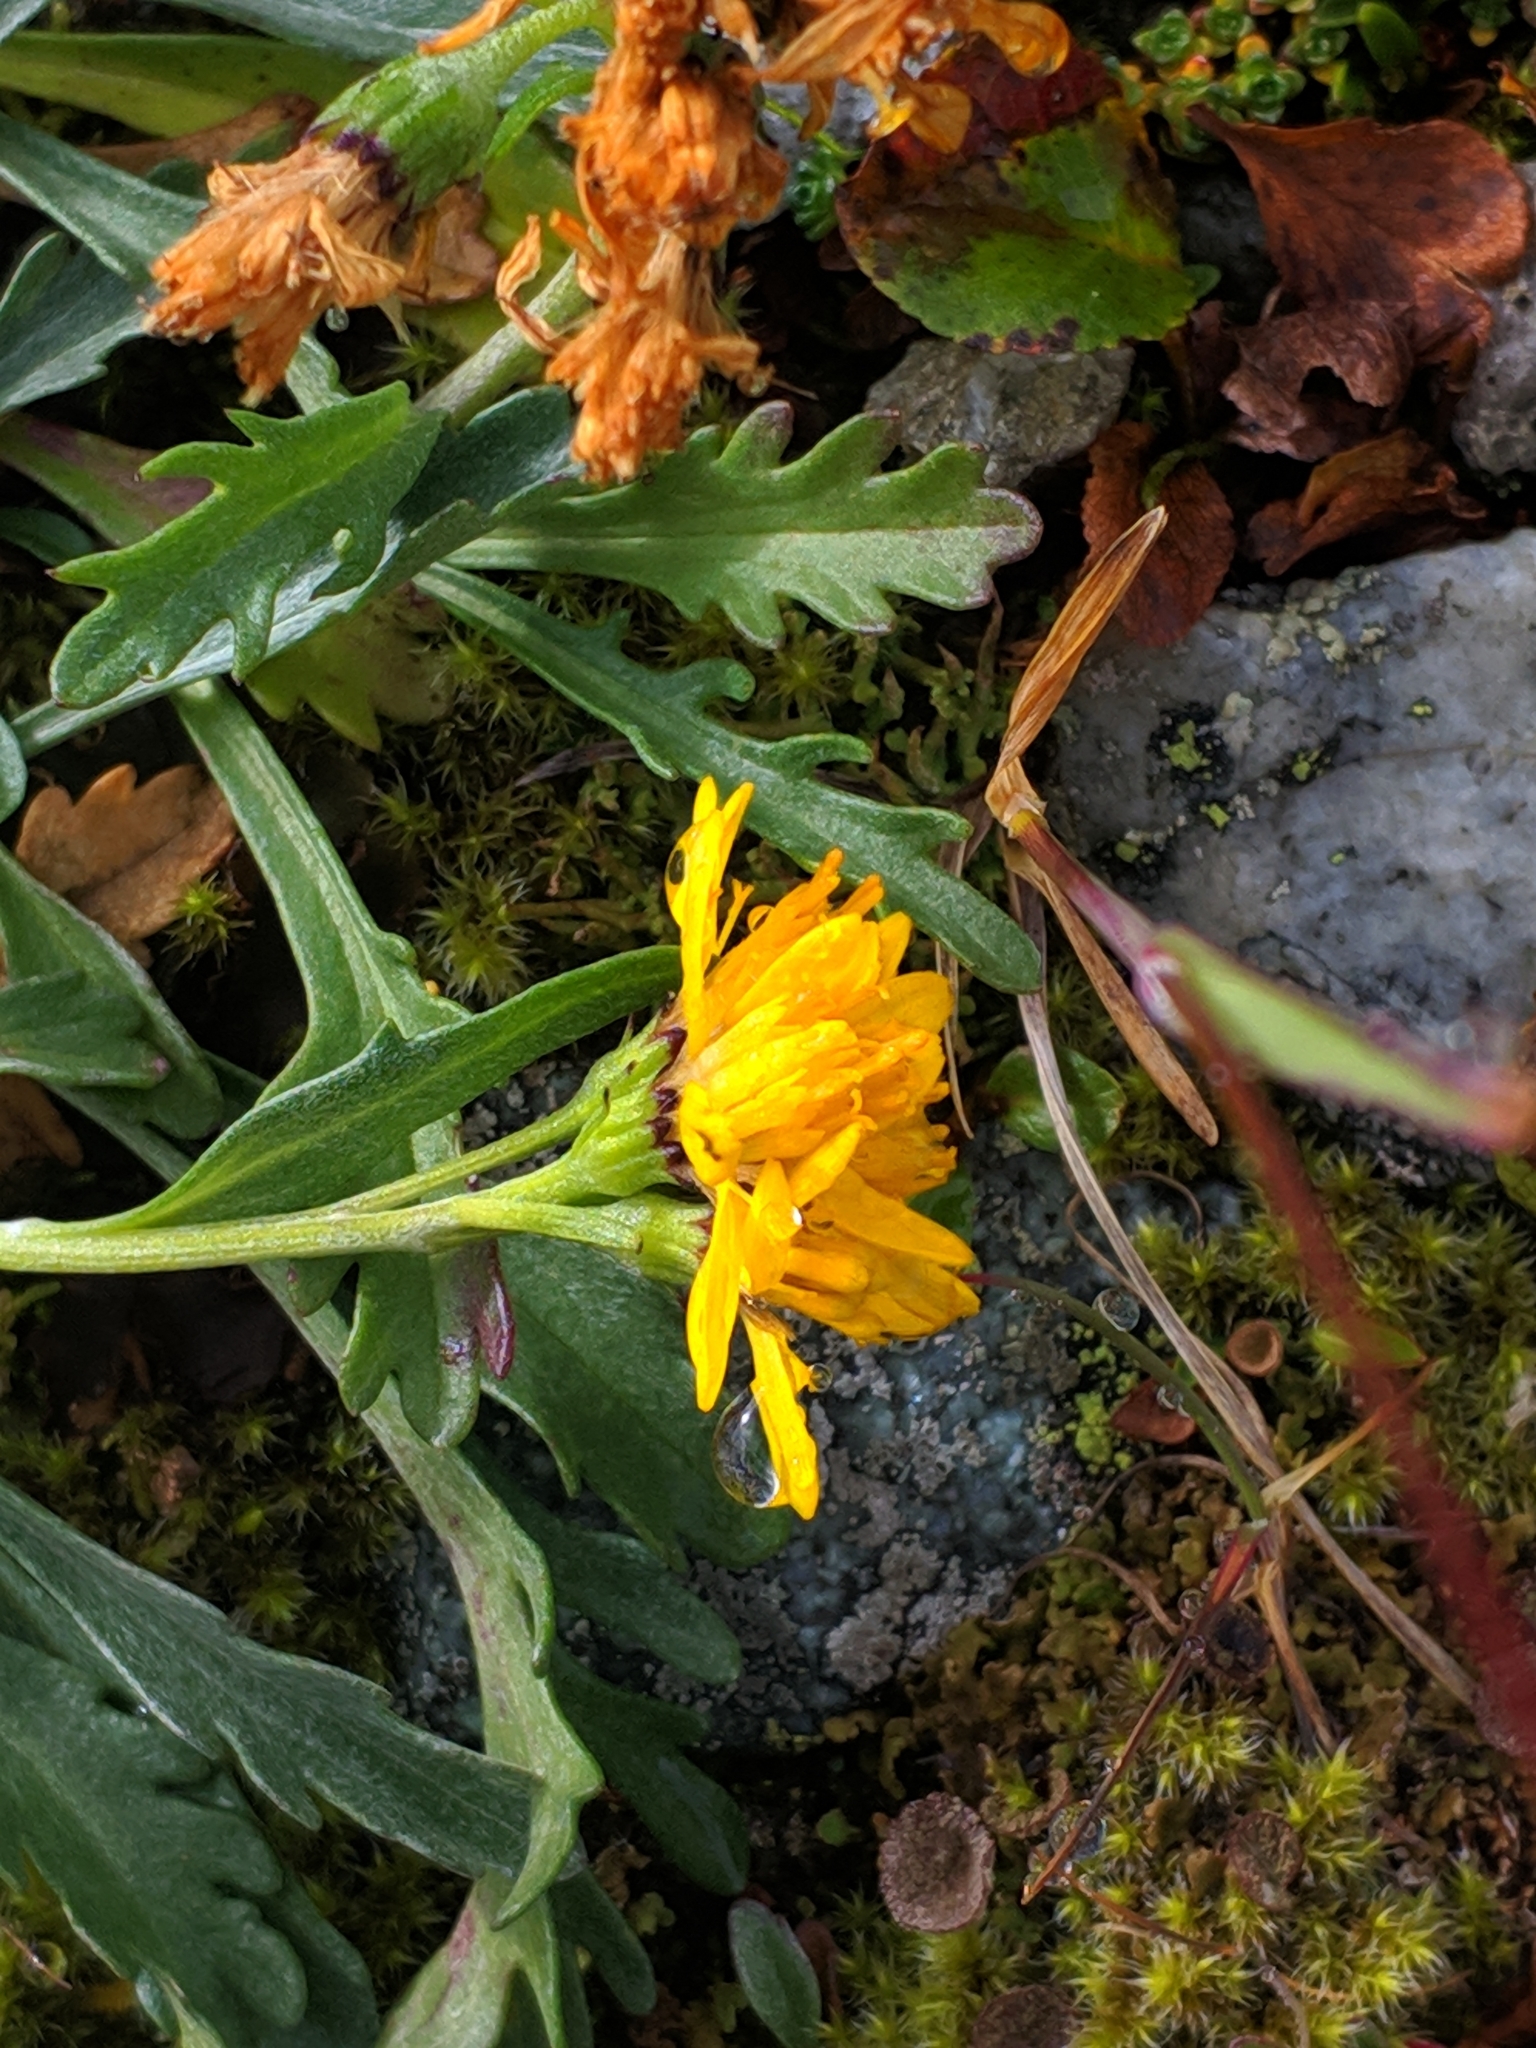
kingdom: Plantae
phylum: Tracheophyta
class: Magnoliopsida
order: Asterales
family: Asteraceae
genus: Jacobaea
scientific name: Jacobaea carniolica
